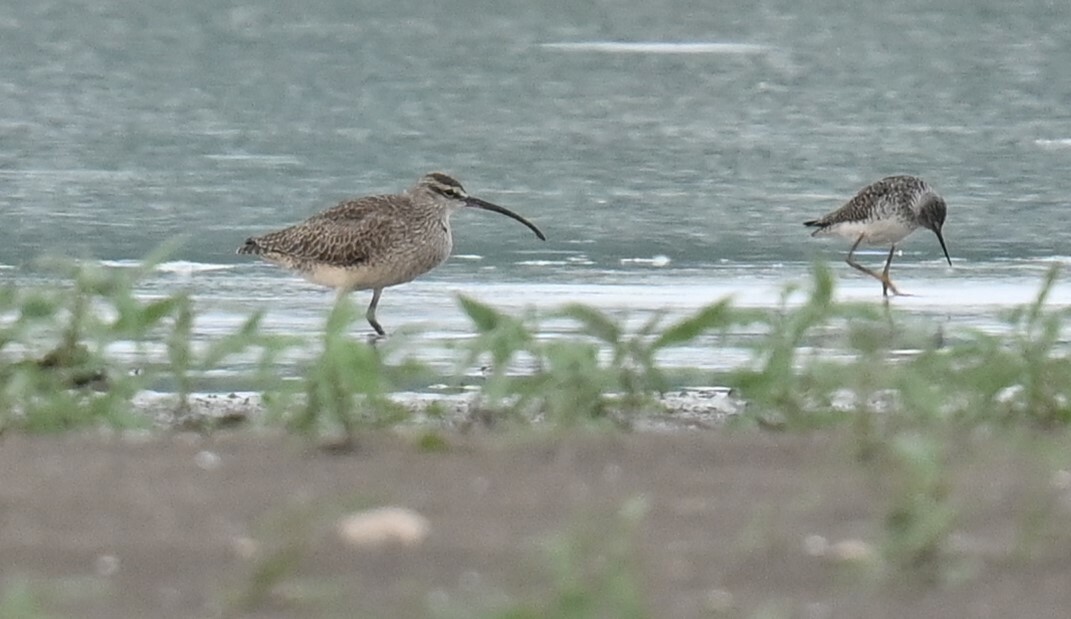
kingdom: Animalia
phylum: Chordata
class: Aves
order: Charadriiformes
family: Scolopacidae
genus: Numenius
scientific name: Numenius phaeopus
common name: Whimbrel
